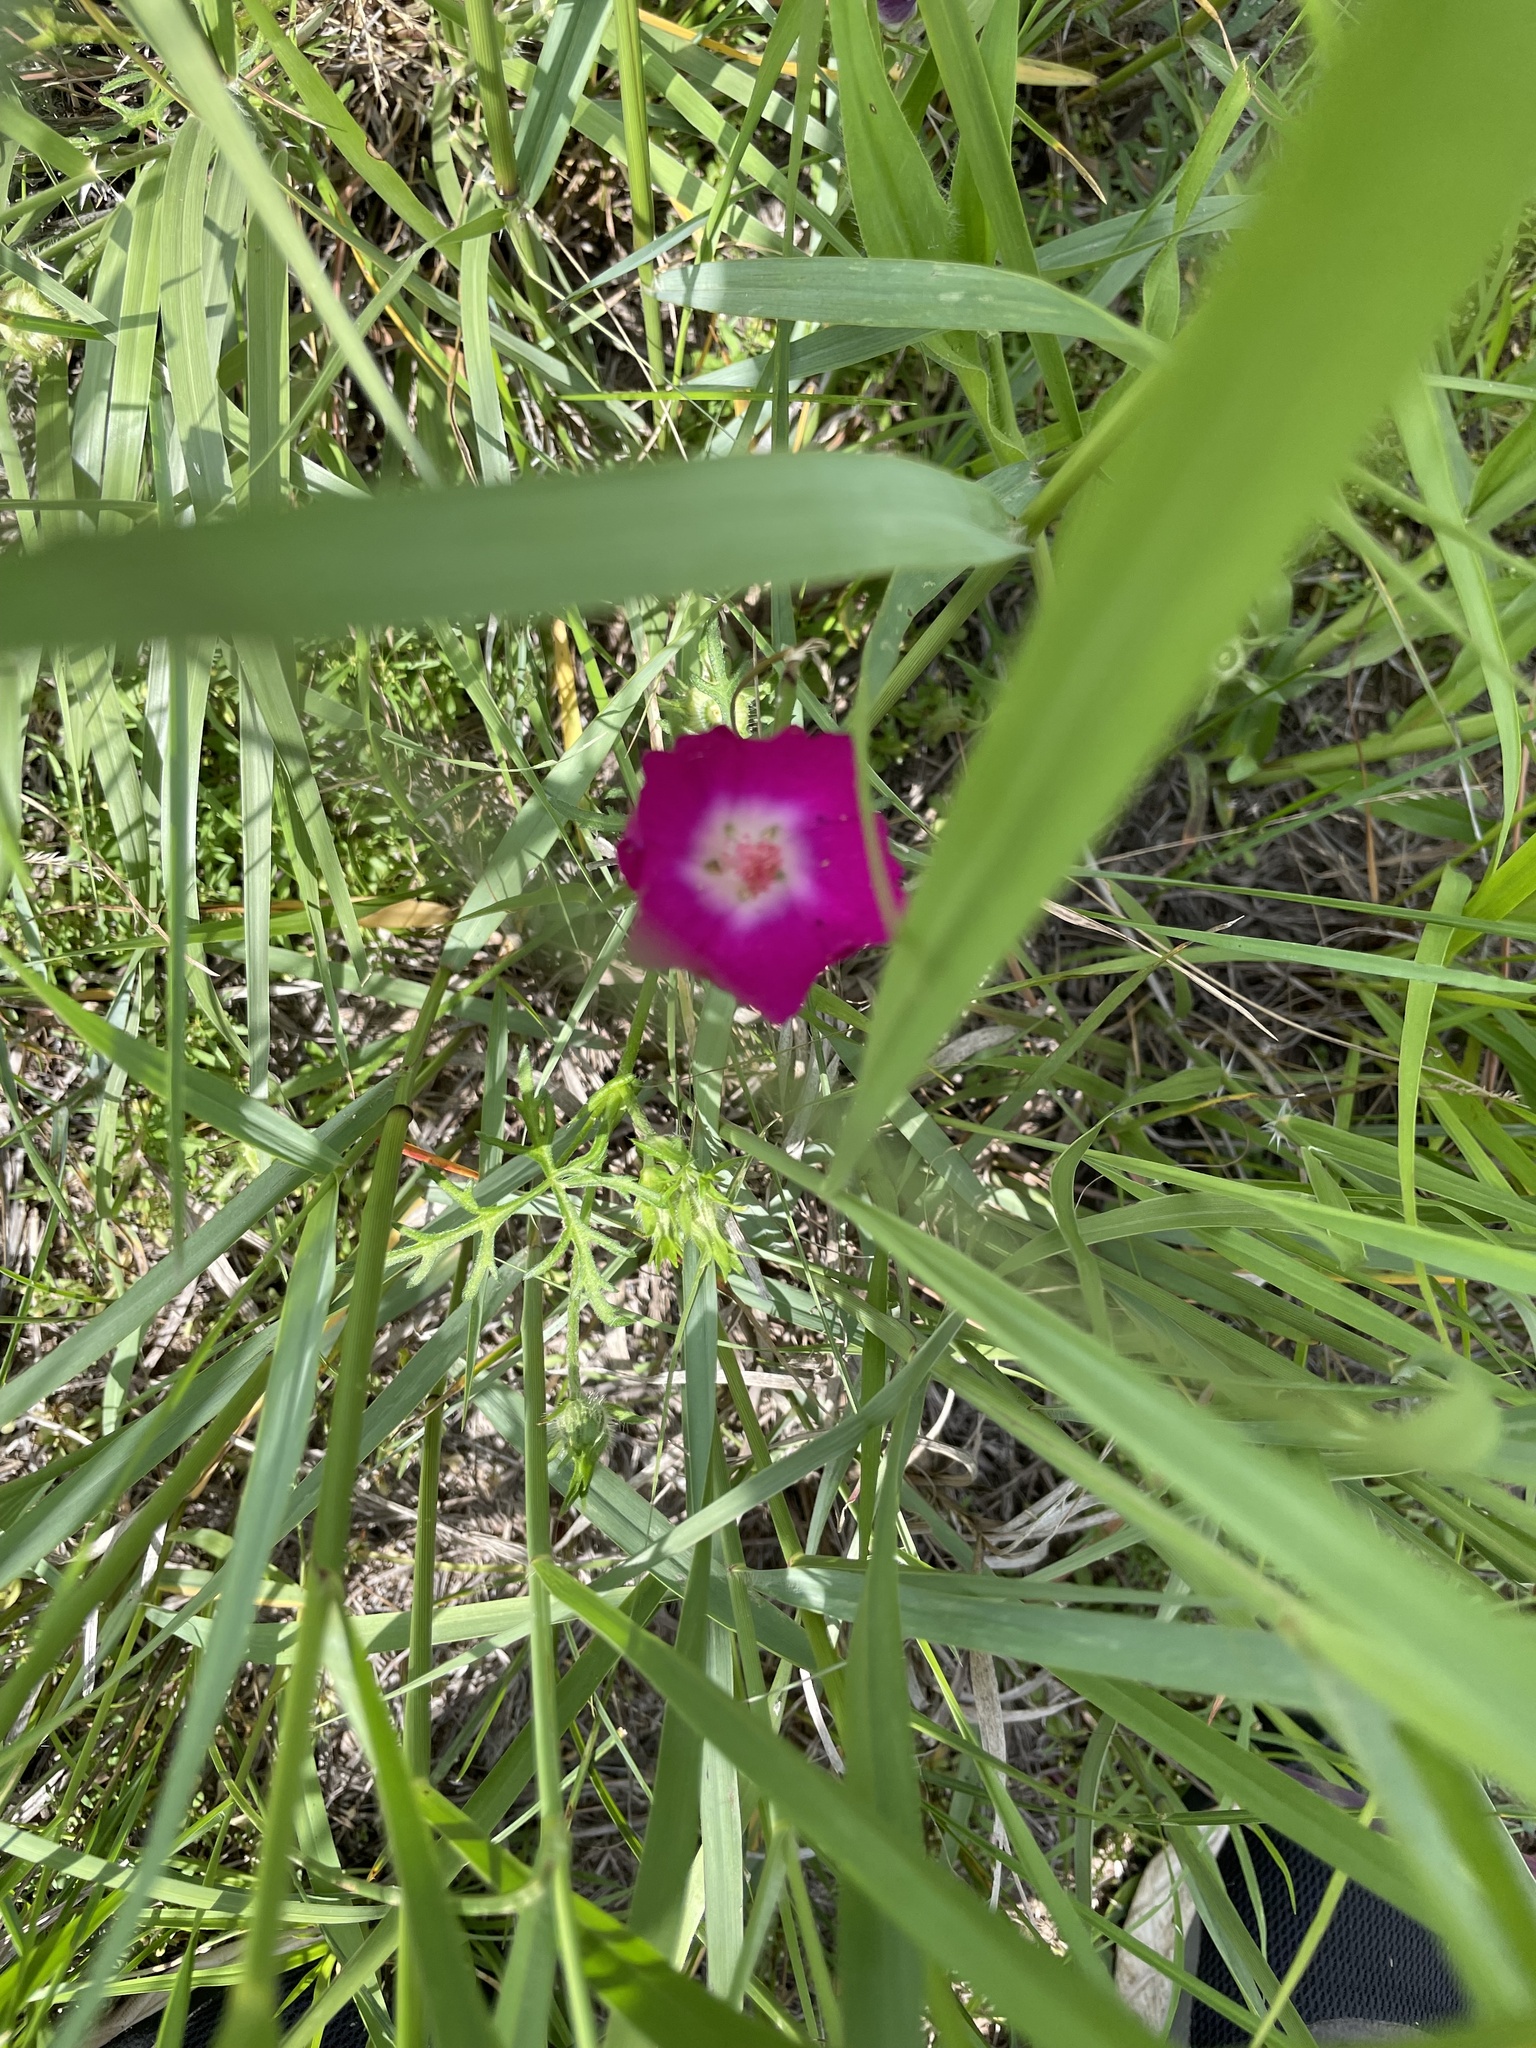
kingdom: Plantae
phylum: Tracheophyta
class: Magnoliopsida
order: Malvales
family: Malvaceae
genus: Callirhoe
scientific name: Callirhoe involucrata
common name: Purple poppy-mallow
